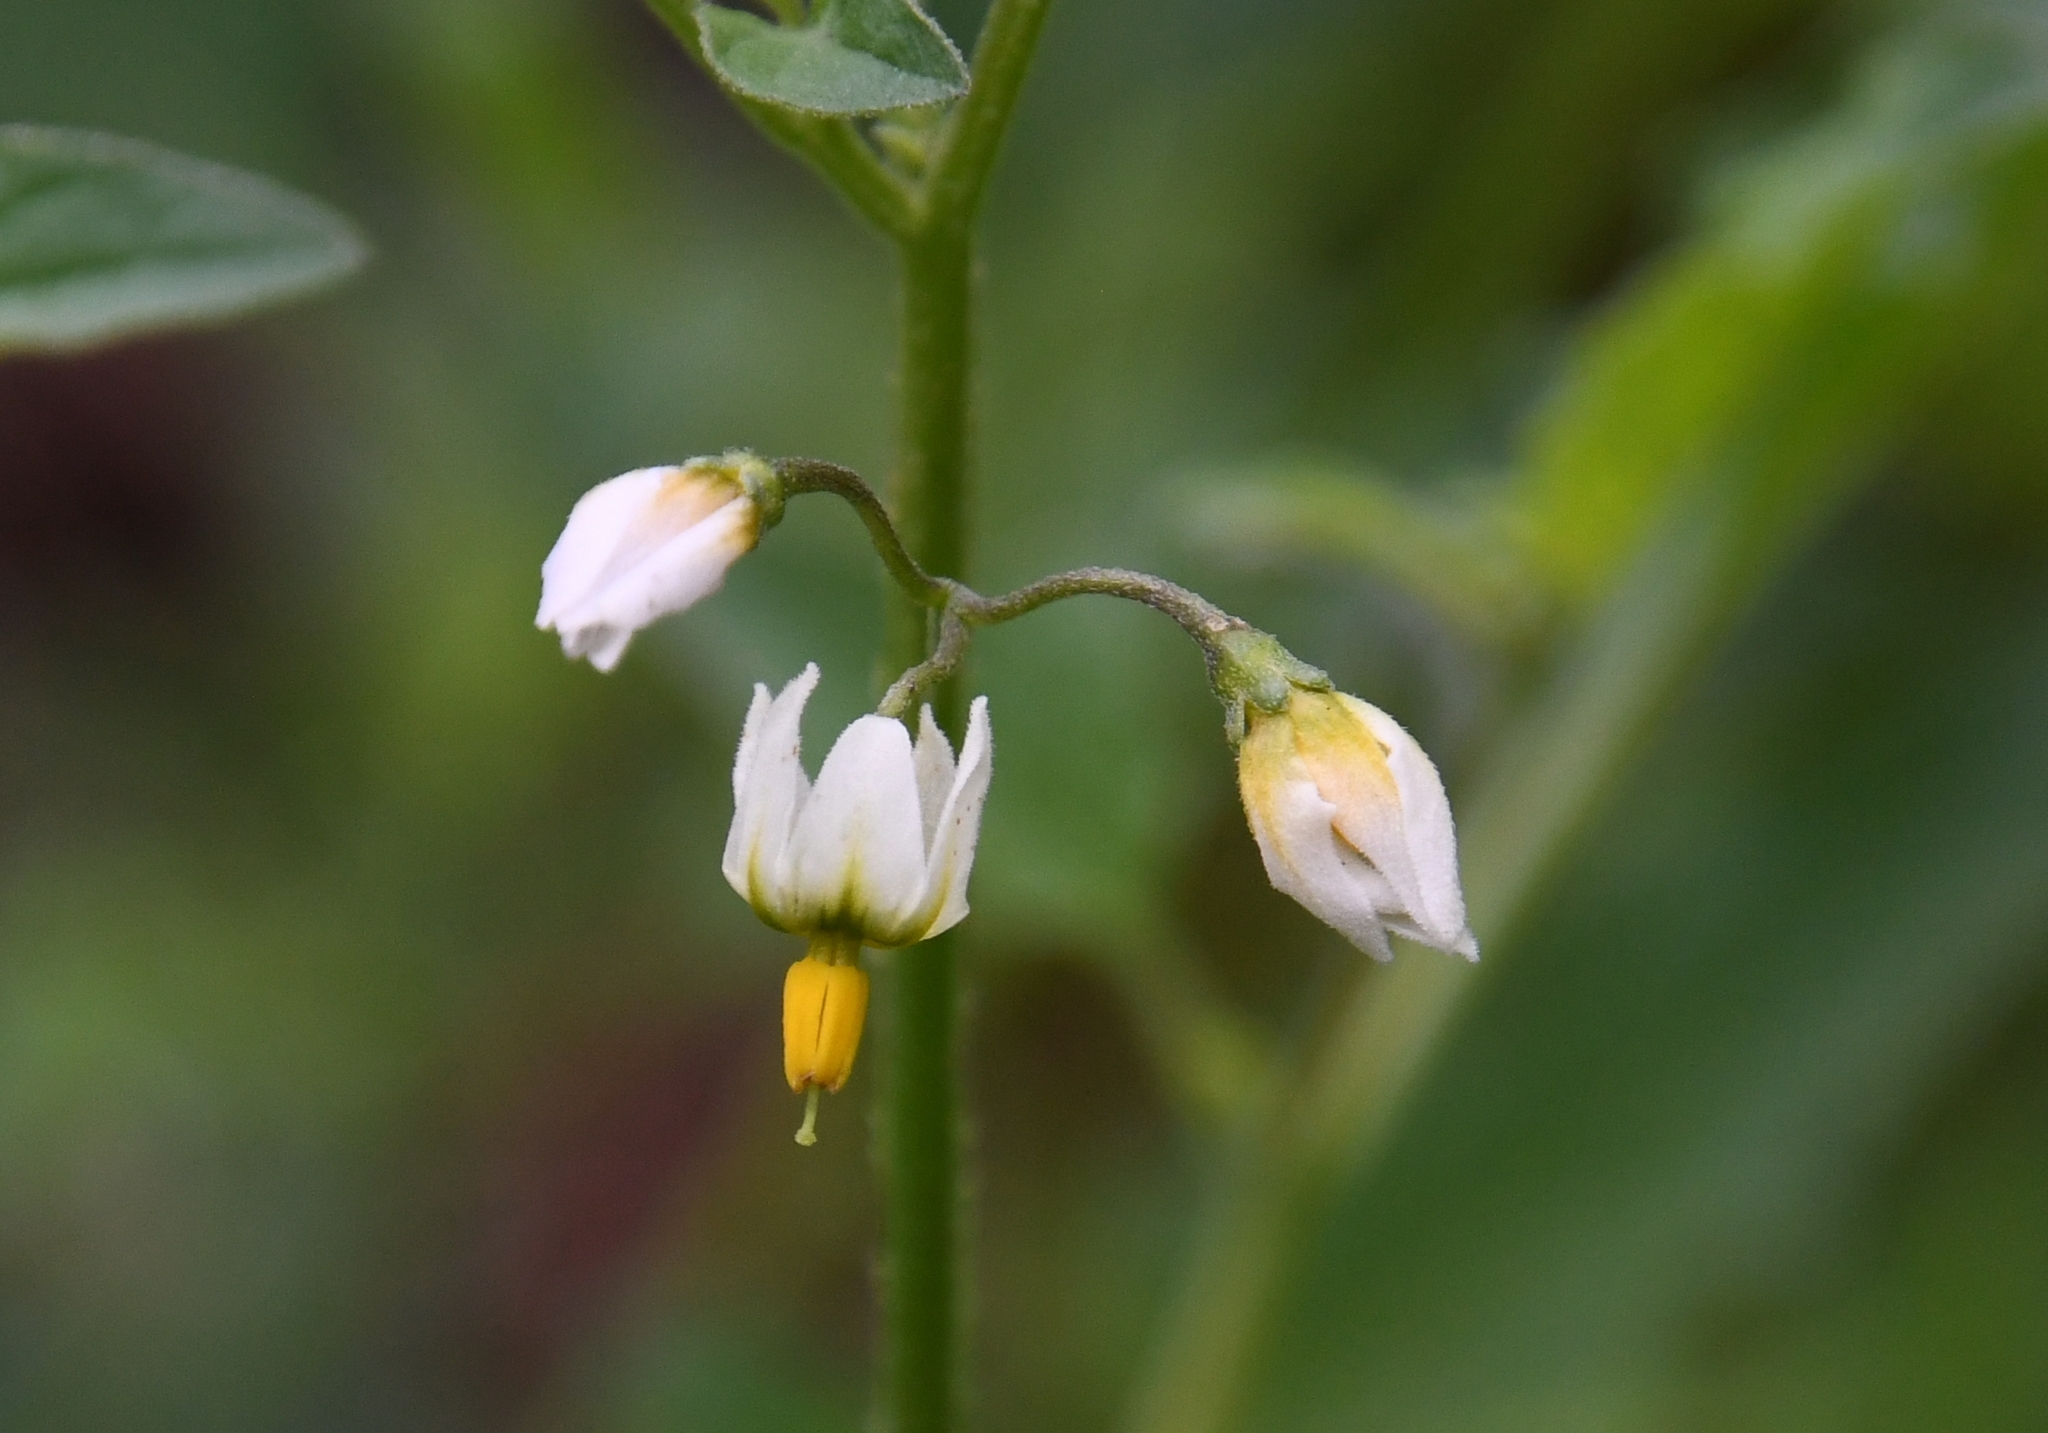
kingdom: Plantae
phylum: Tracheophyta
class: Magnoliopsida
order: Solanales
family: Solanaceae
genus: Solanum
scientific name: Solanum douglasii
